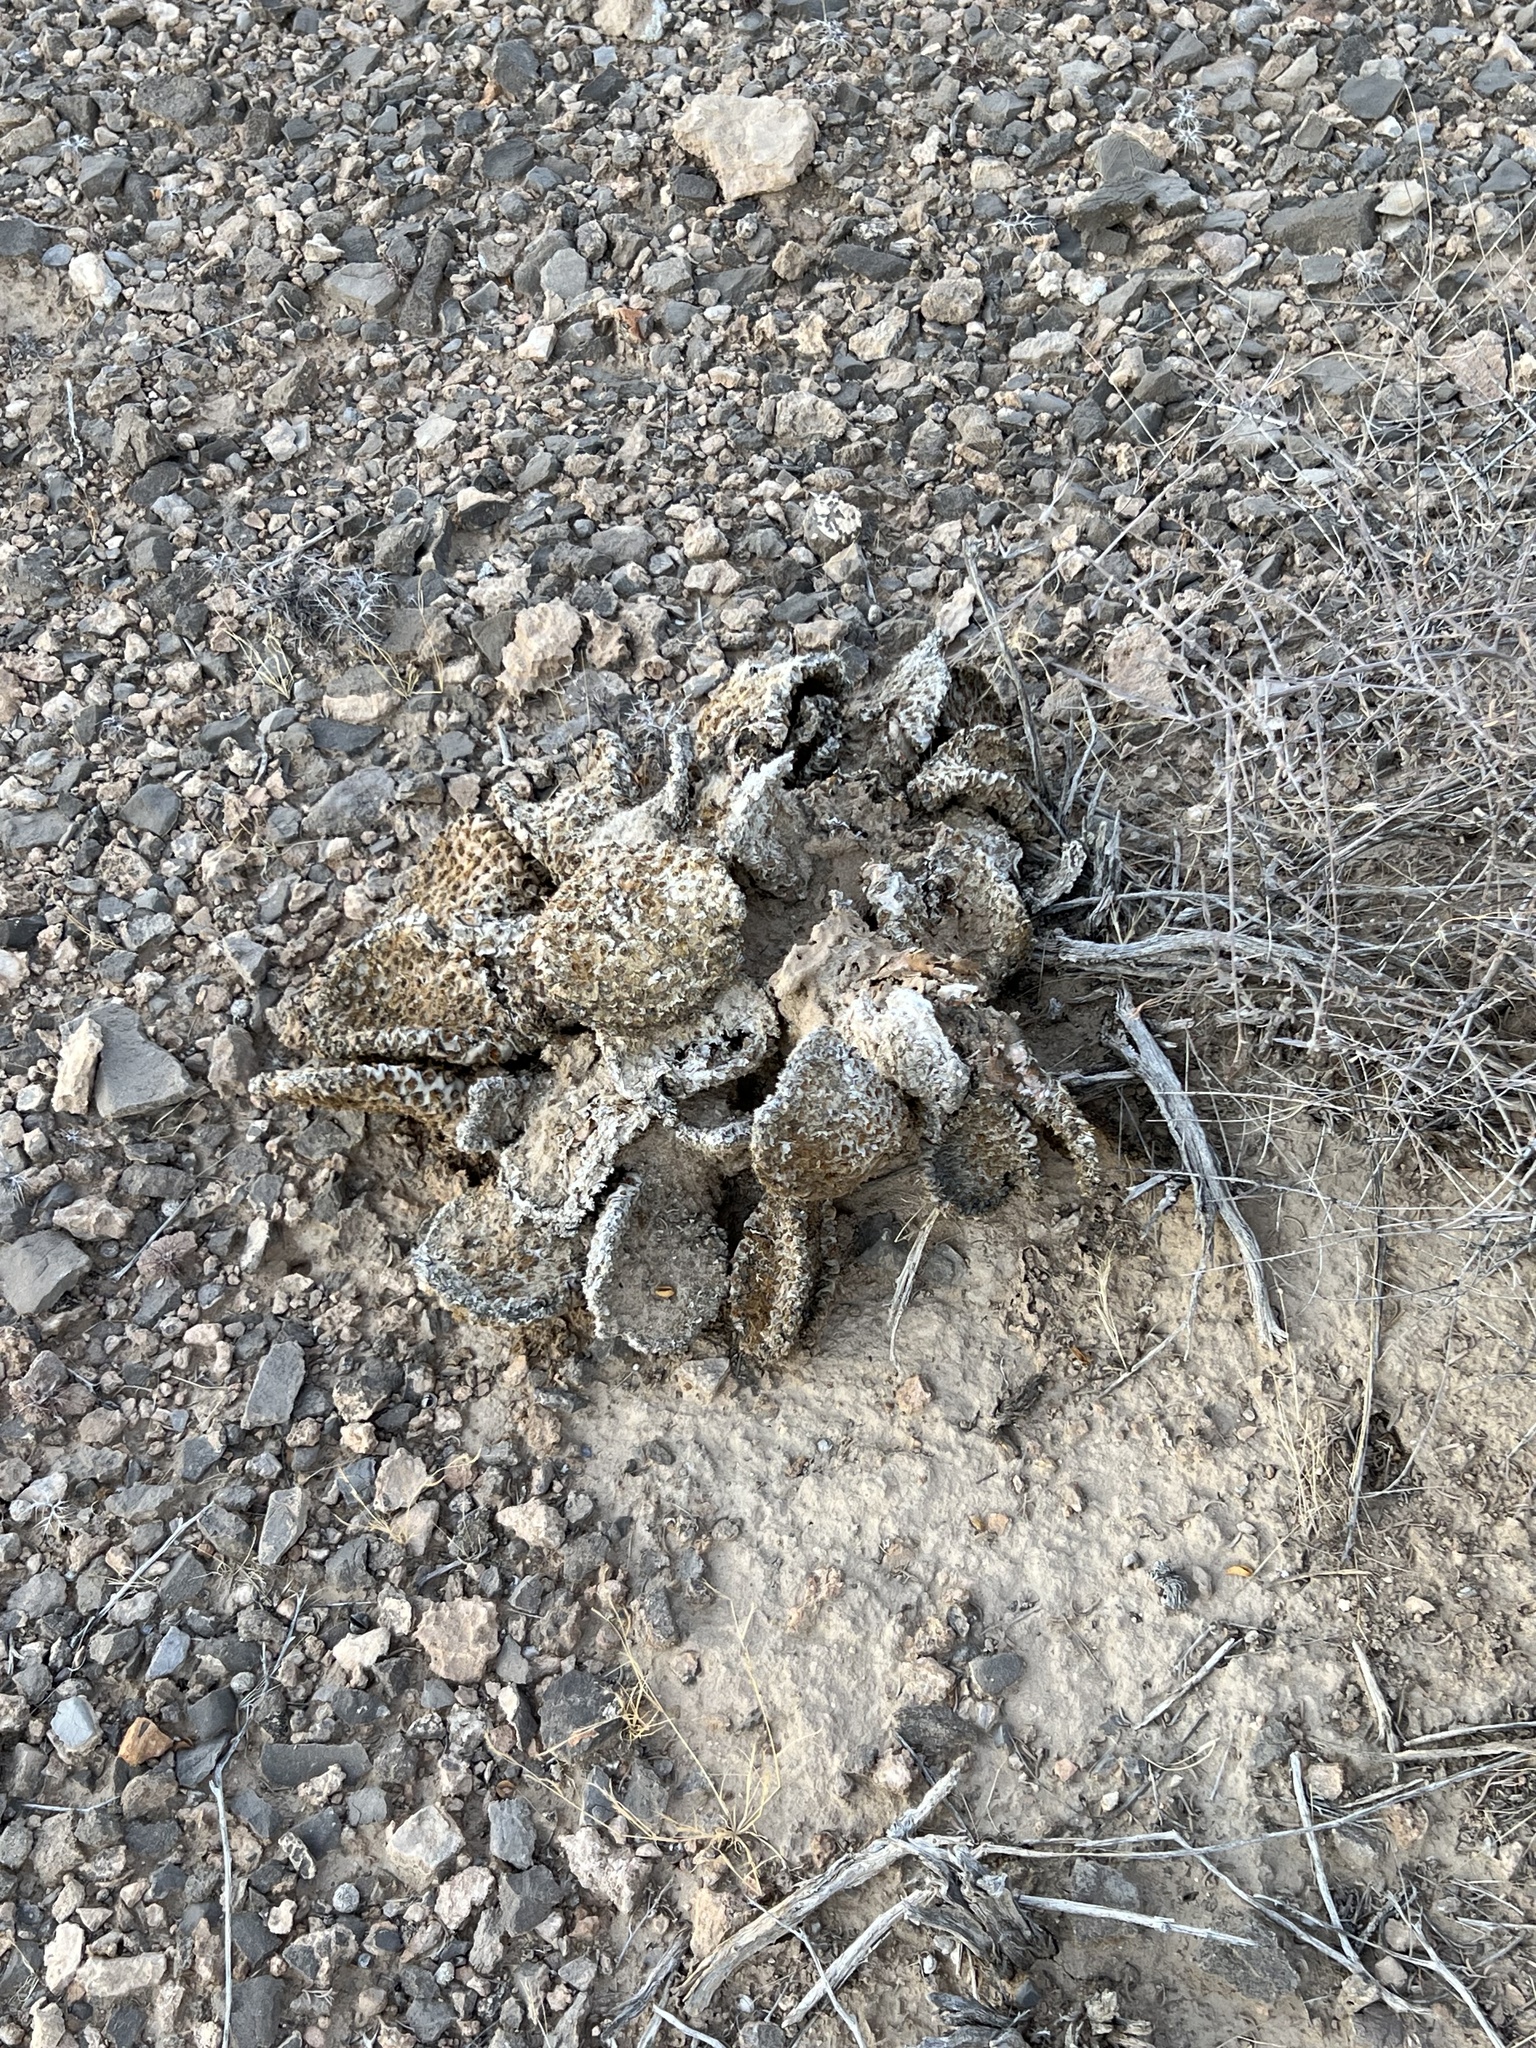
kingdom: Plantae
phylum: Tracheophyta
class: Magnoliopsida
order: Caryophyllales
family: Cactaceae
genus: Opuntia
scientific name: Opuntia basilaris
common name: Beavertail prickly-pear
